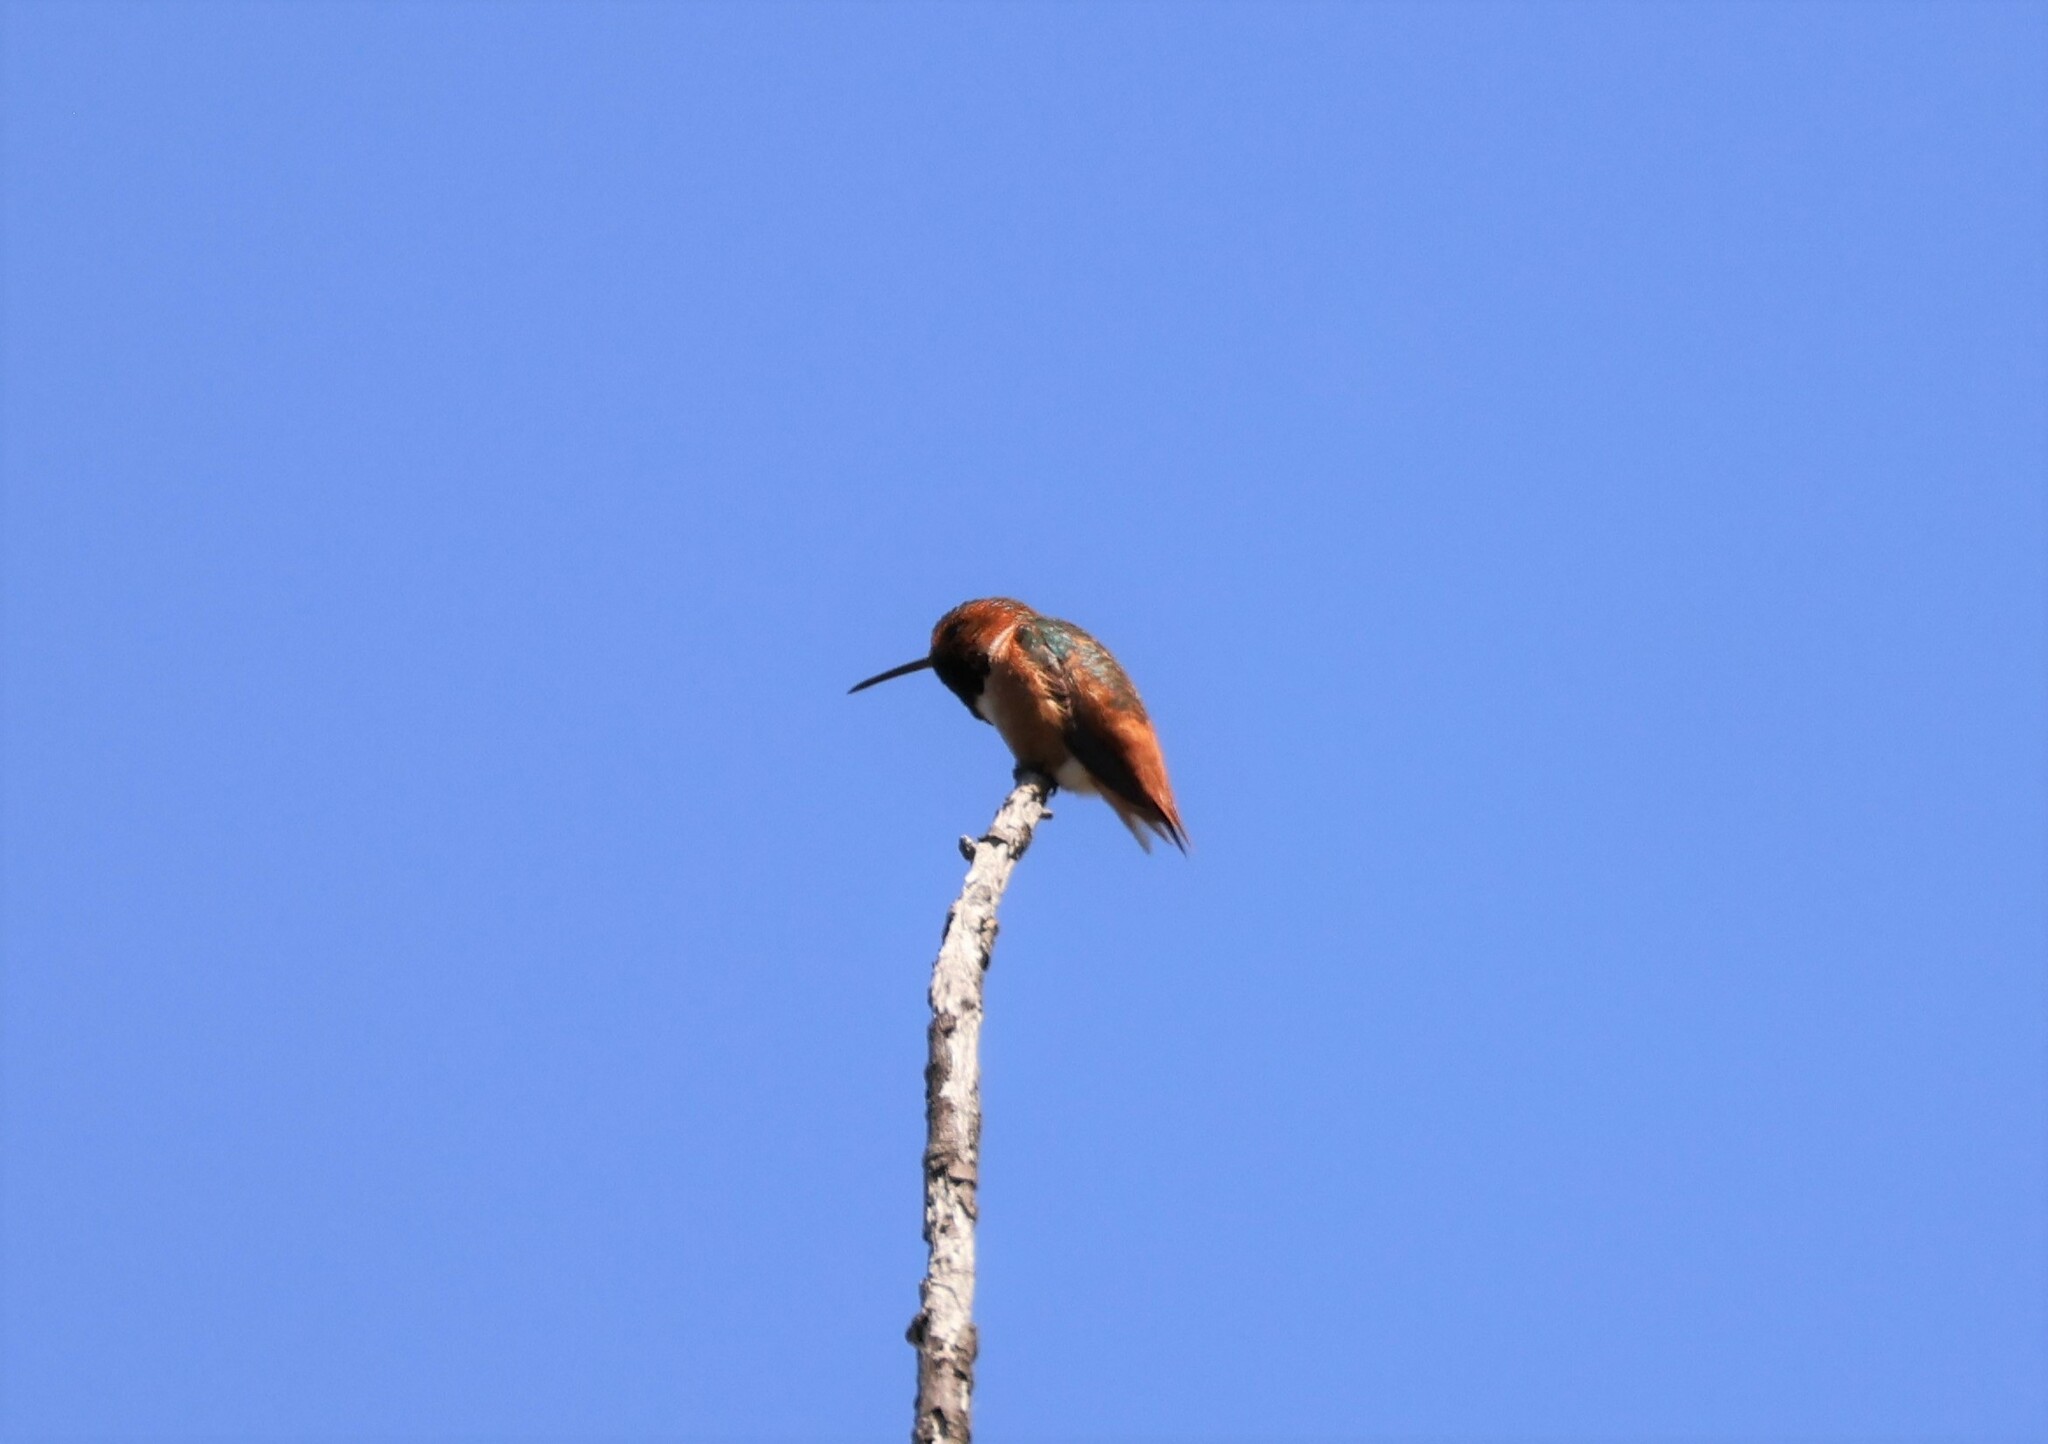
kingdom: Animalia
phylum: Chordata
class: Aves
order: Apodiformes
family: Trochilidae
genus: Selasphorus
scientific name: Selasphorus sasin
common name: Allen's hummingbird
